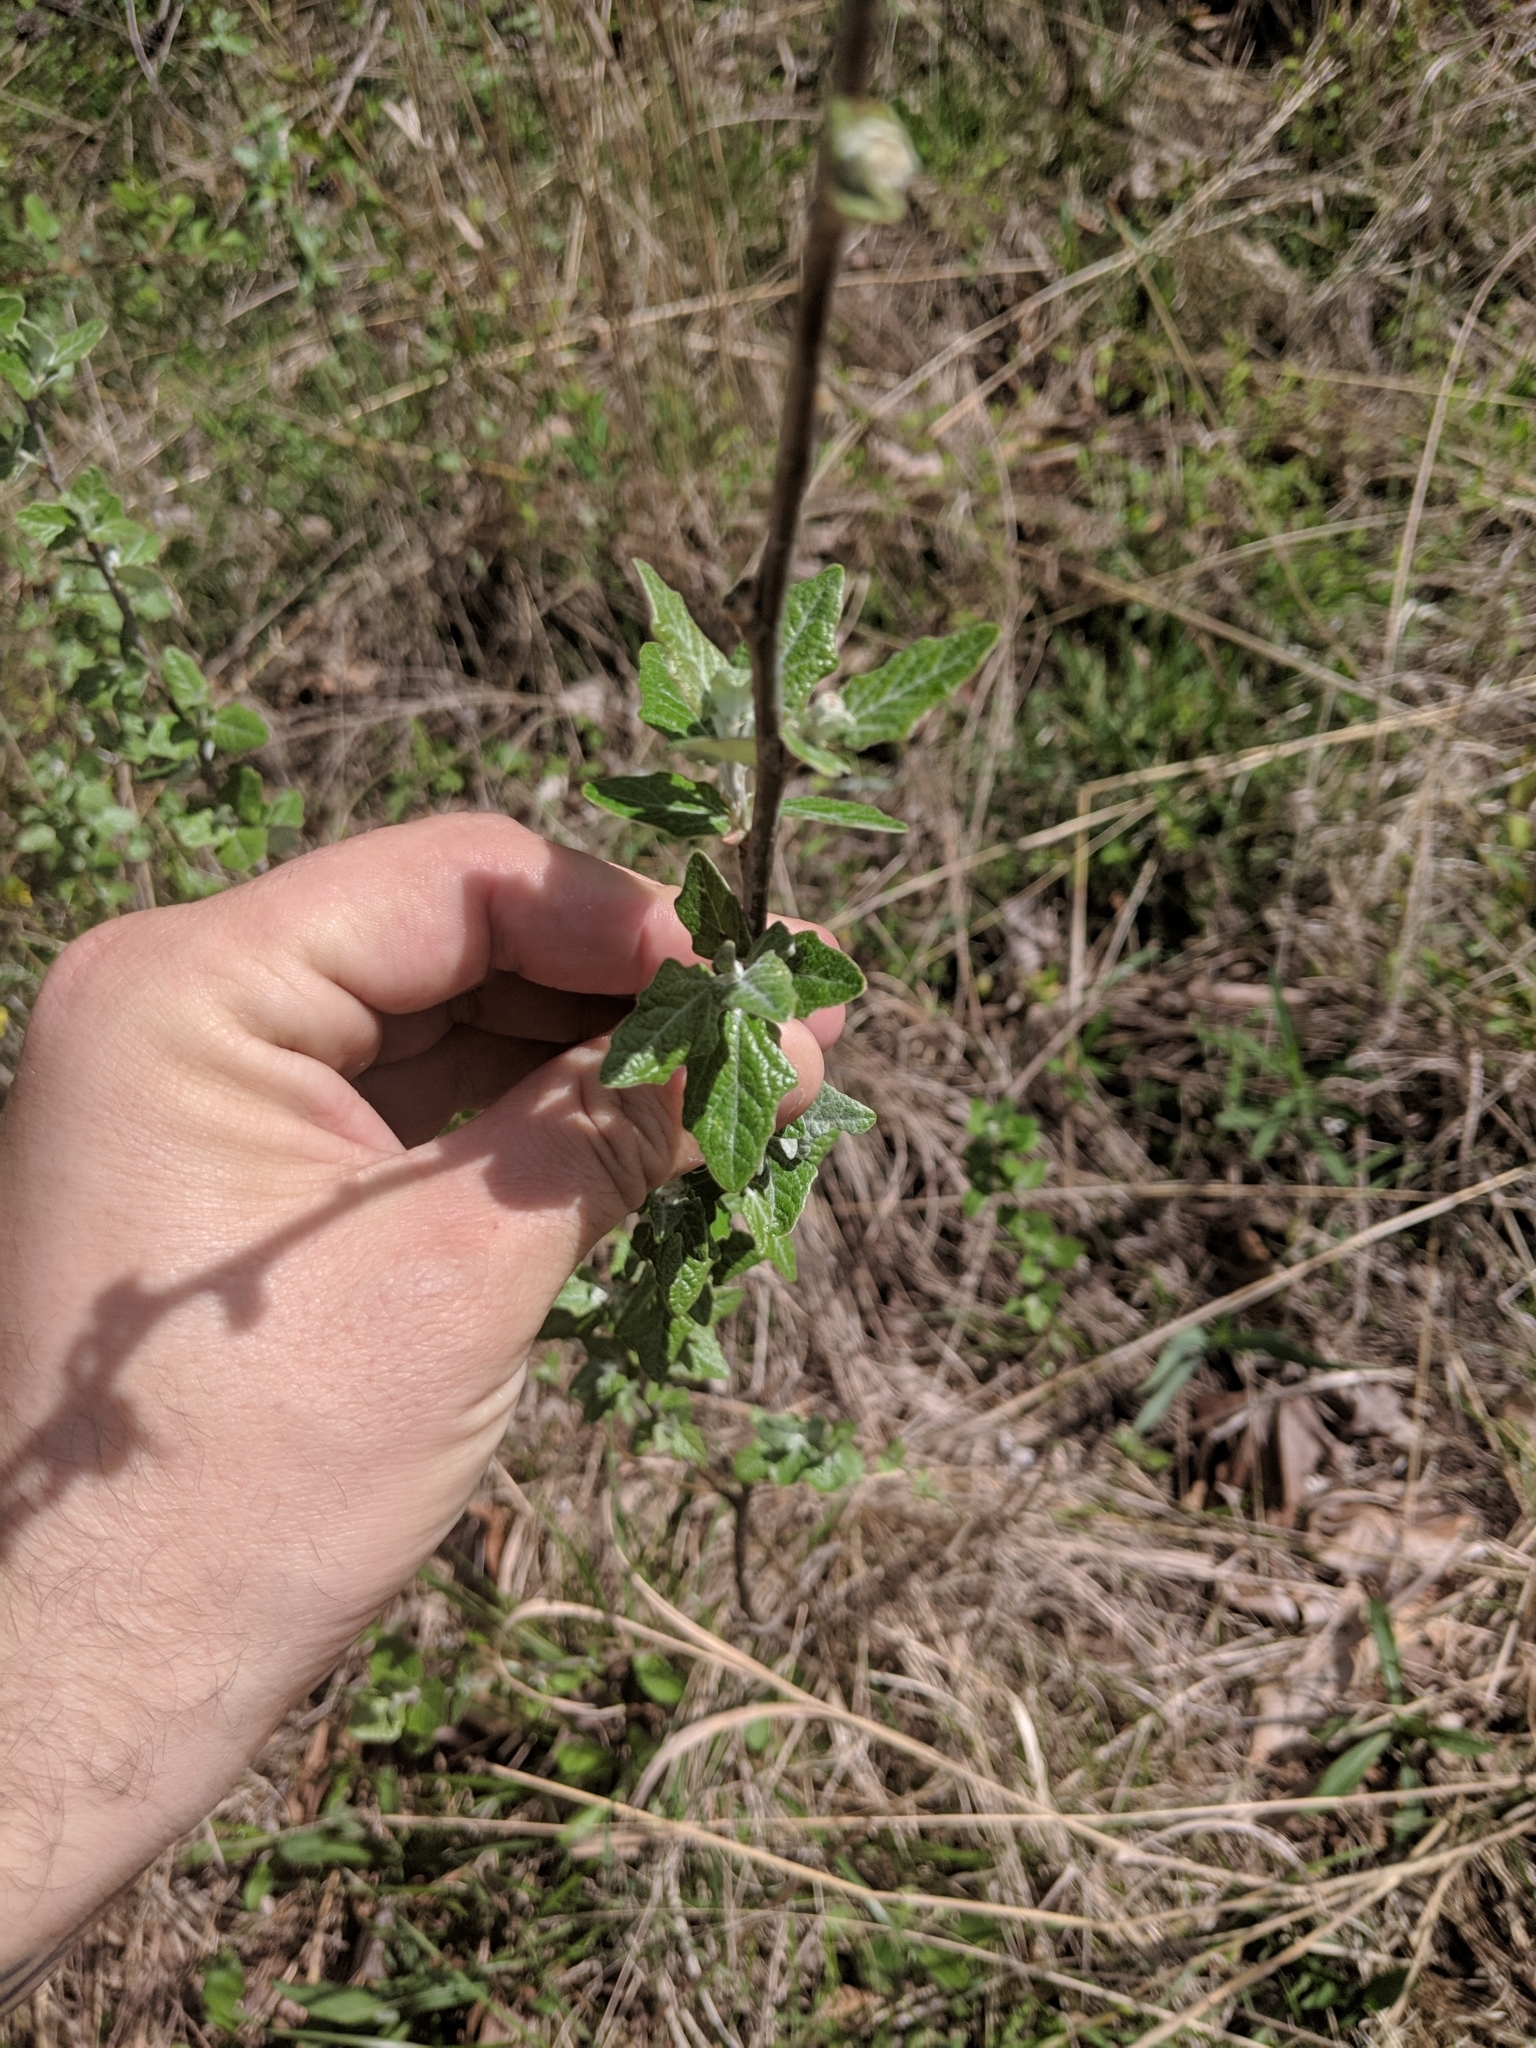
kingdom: Plantae
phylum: Tracheophyta
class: Magnoliopsida
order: Malpighiales
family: Salicaceae
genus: Populus
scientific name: Populus alba
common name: White poplar
